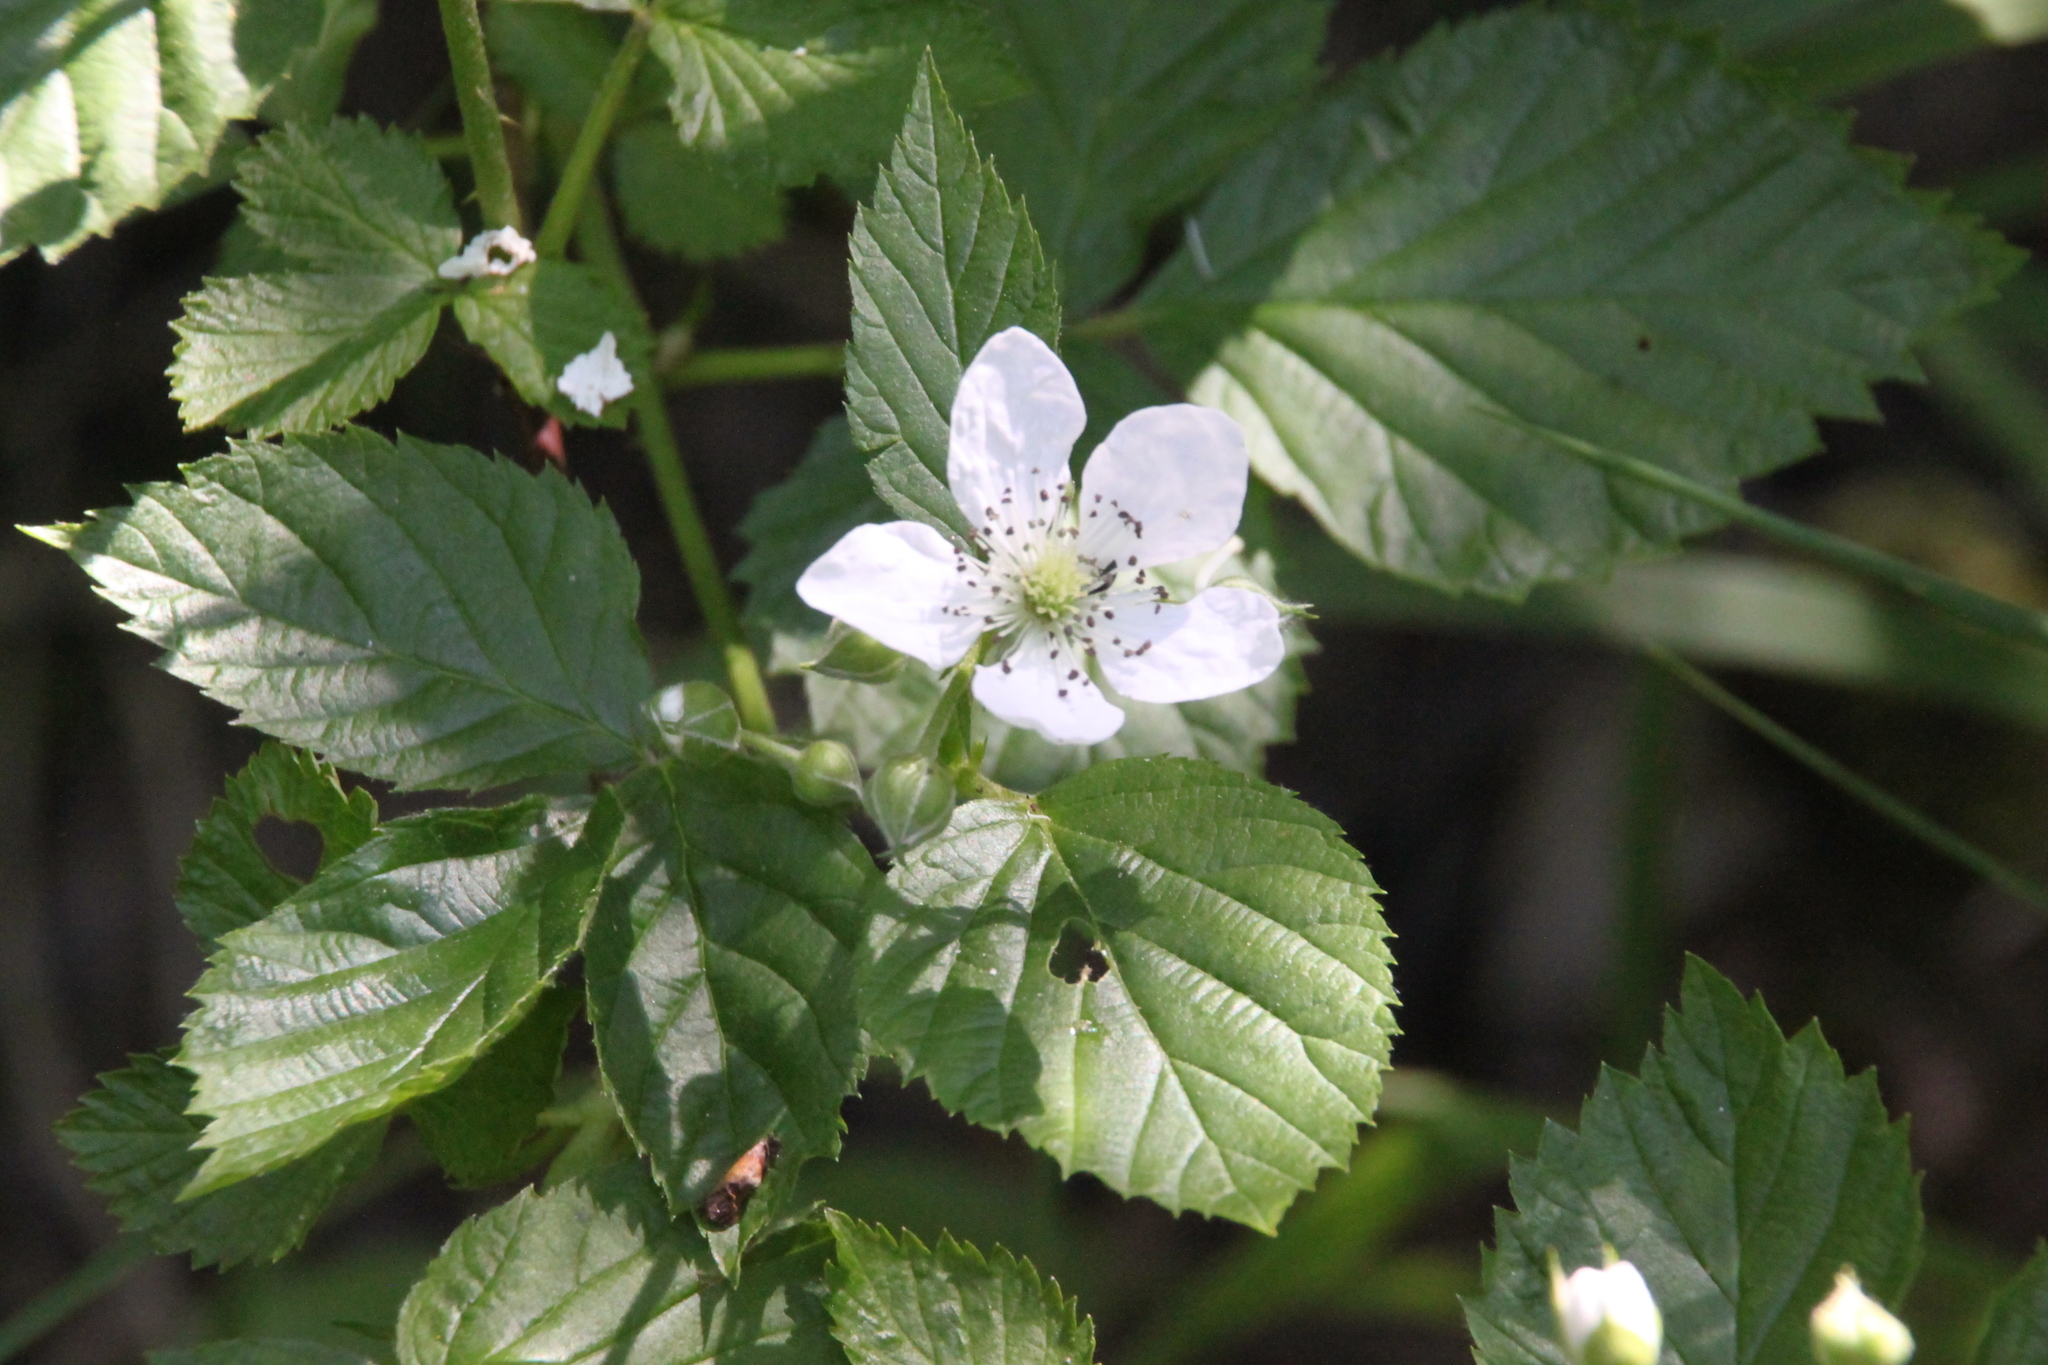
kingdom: Plantae
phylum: Tracheophyta
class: Magnoliopsida
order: Rosales
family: Rosaceae
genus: Rubus
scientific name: Rubus polonicus
